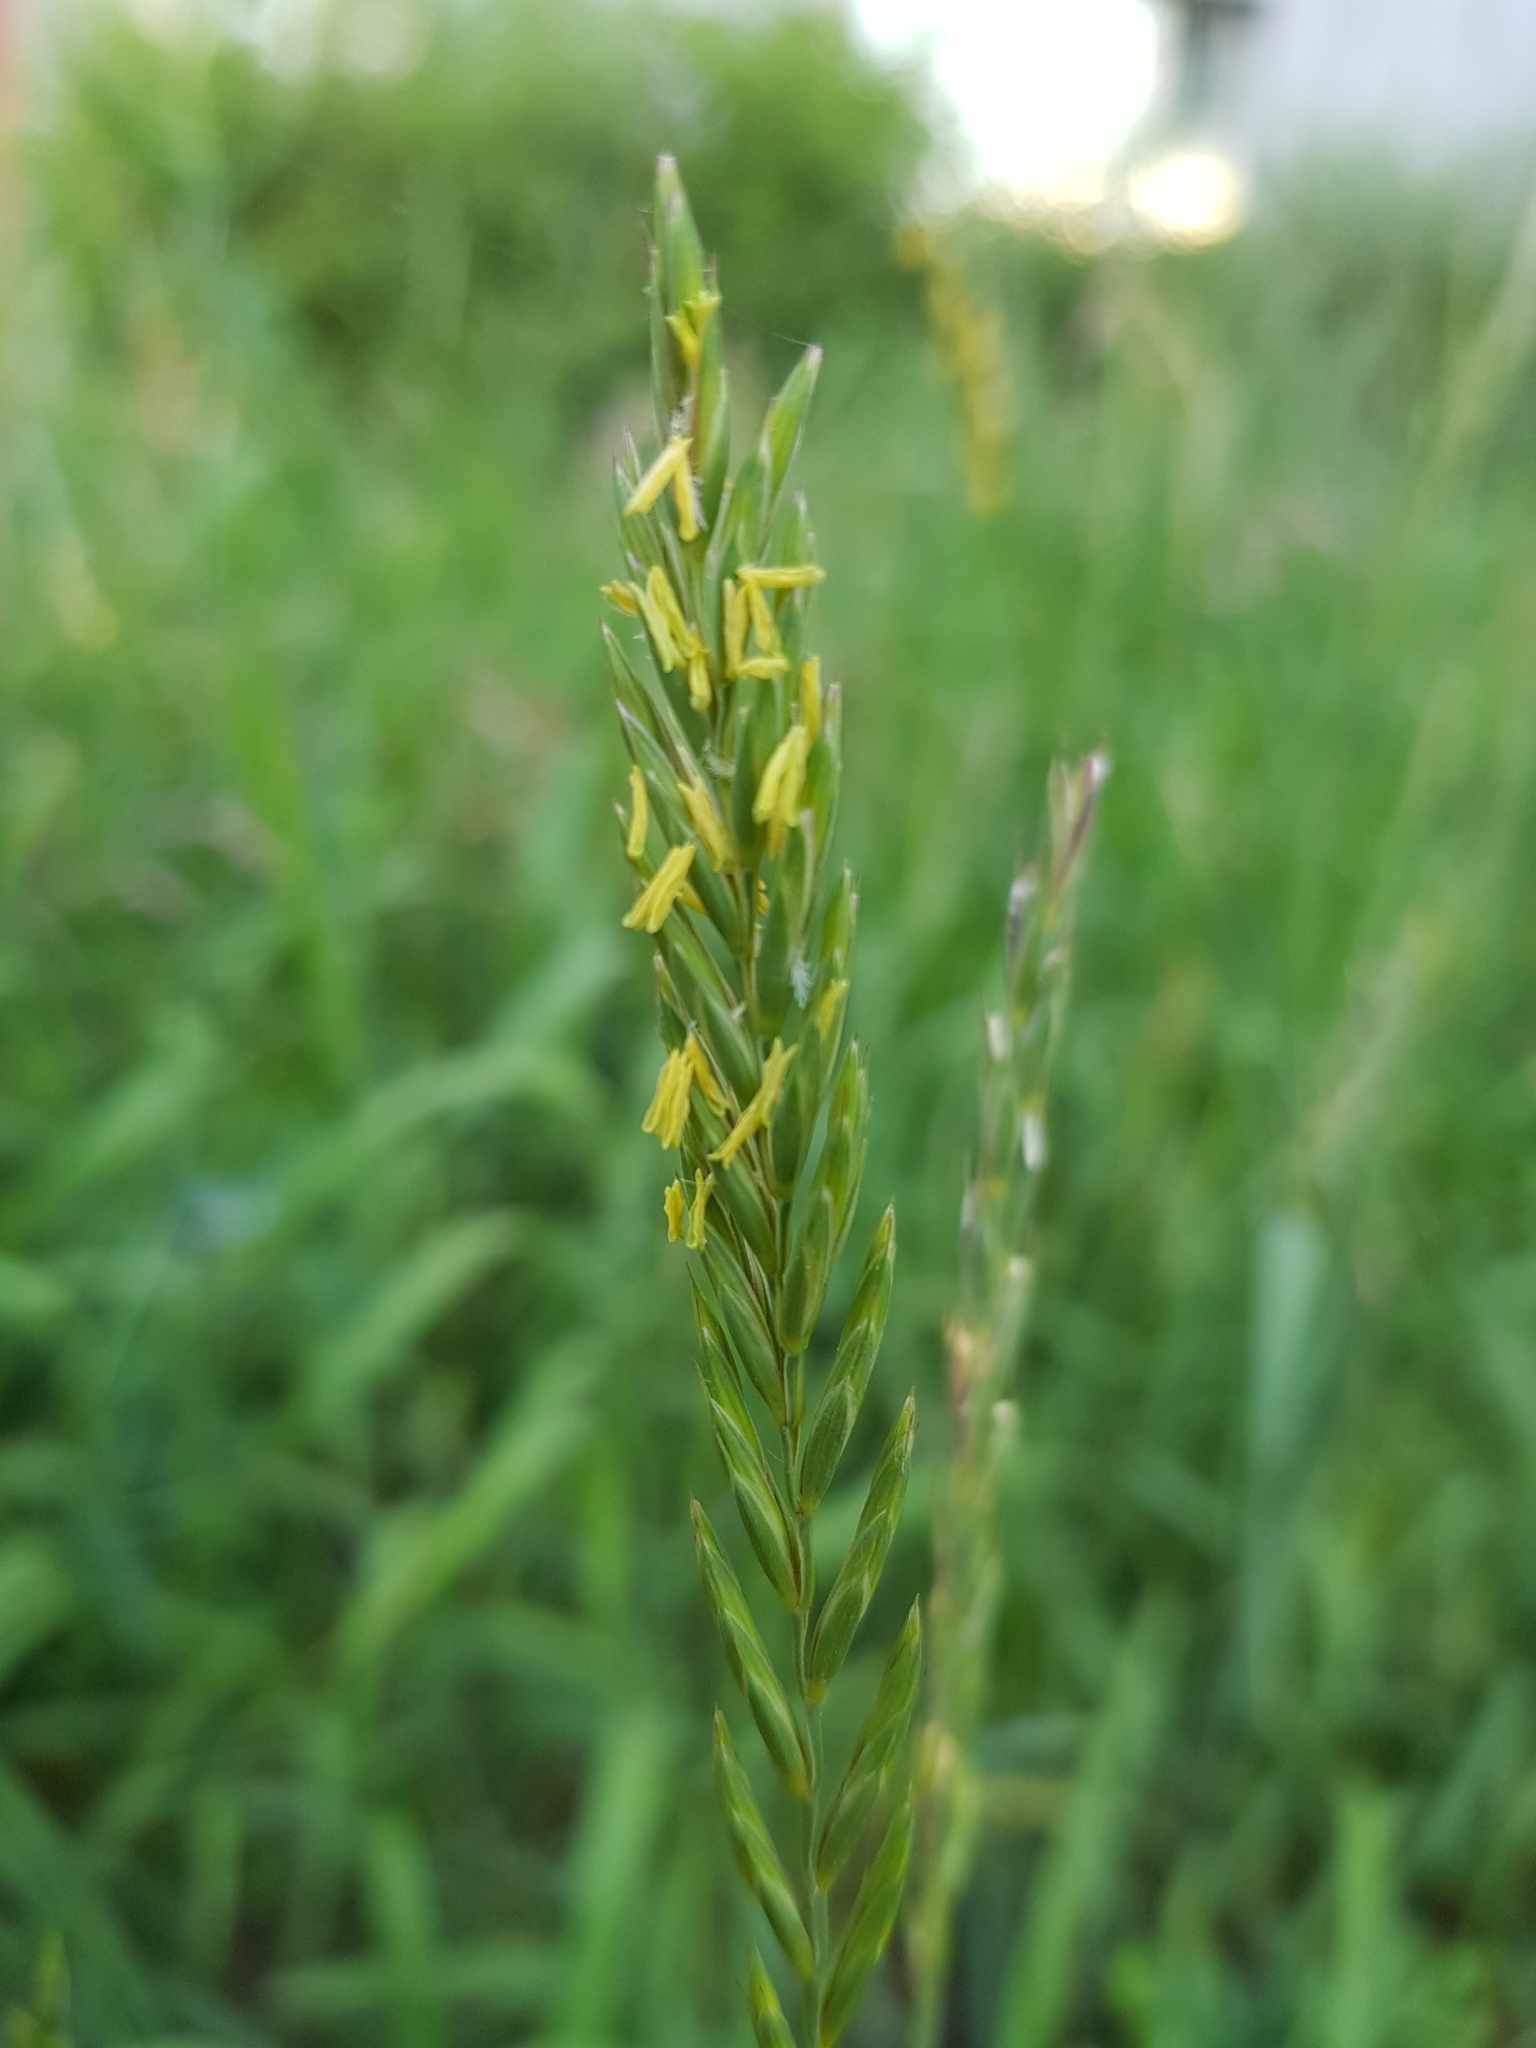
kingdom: Plantae
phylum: Tracheophyta
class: Liliopsida
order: Poales
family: Poaceae
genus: Elymus
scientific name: Elymus repens
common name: Quackgrass
